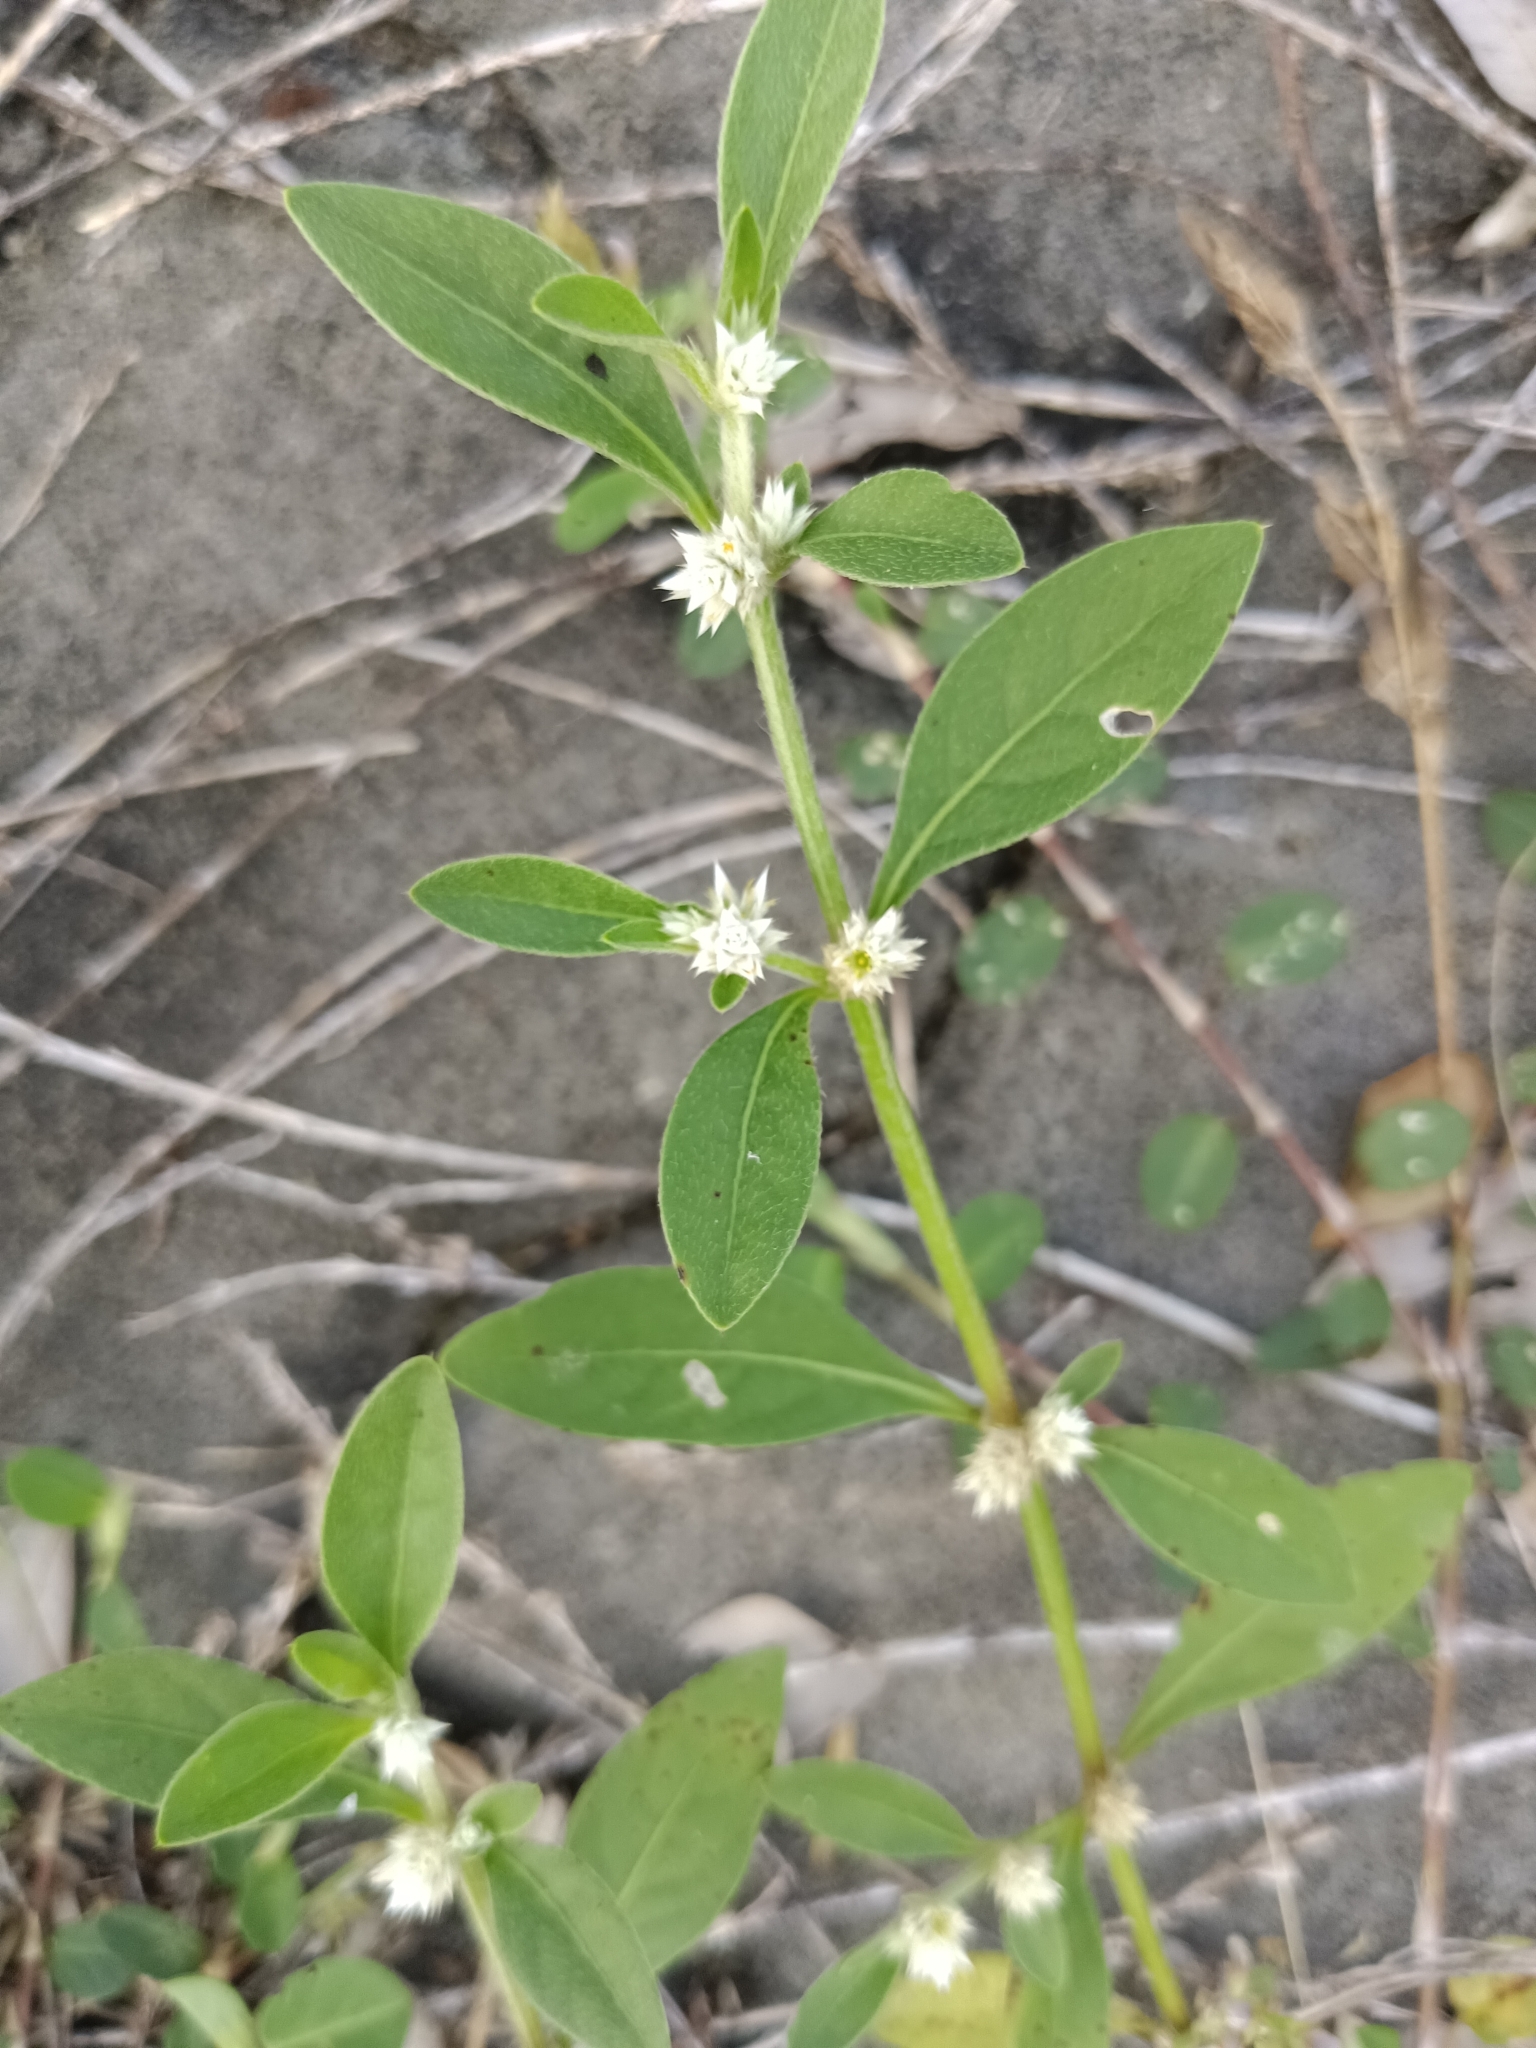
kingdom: Plantae
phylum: Tracheophyta
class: Magnoliopsida
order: Caryophyllales
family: Amaranthaceae
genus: Alternanthera
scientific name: Alternanthera ficoidea
